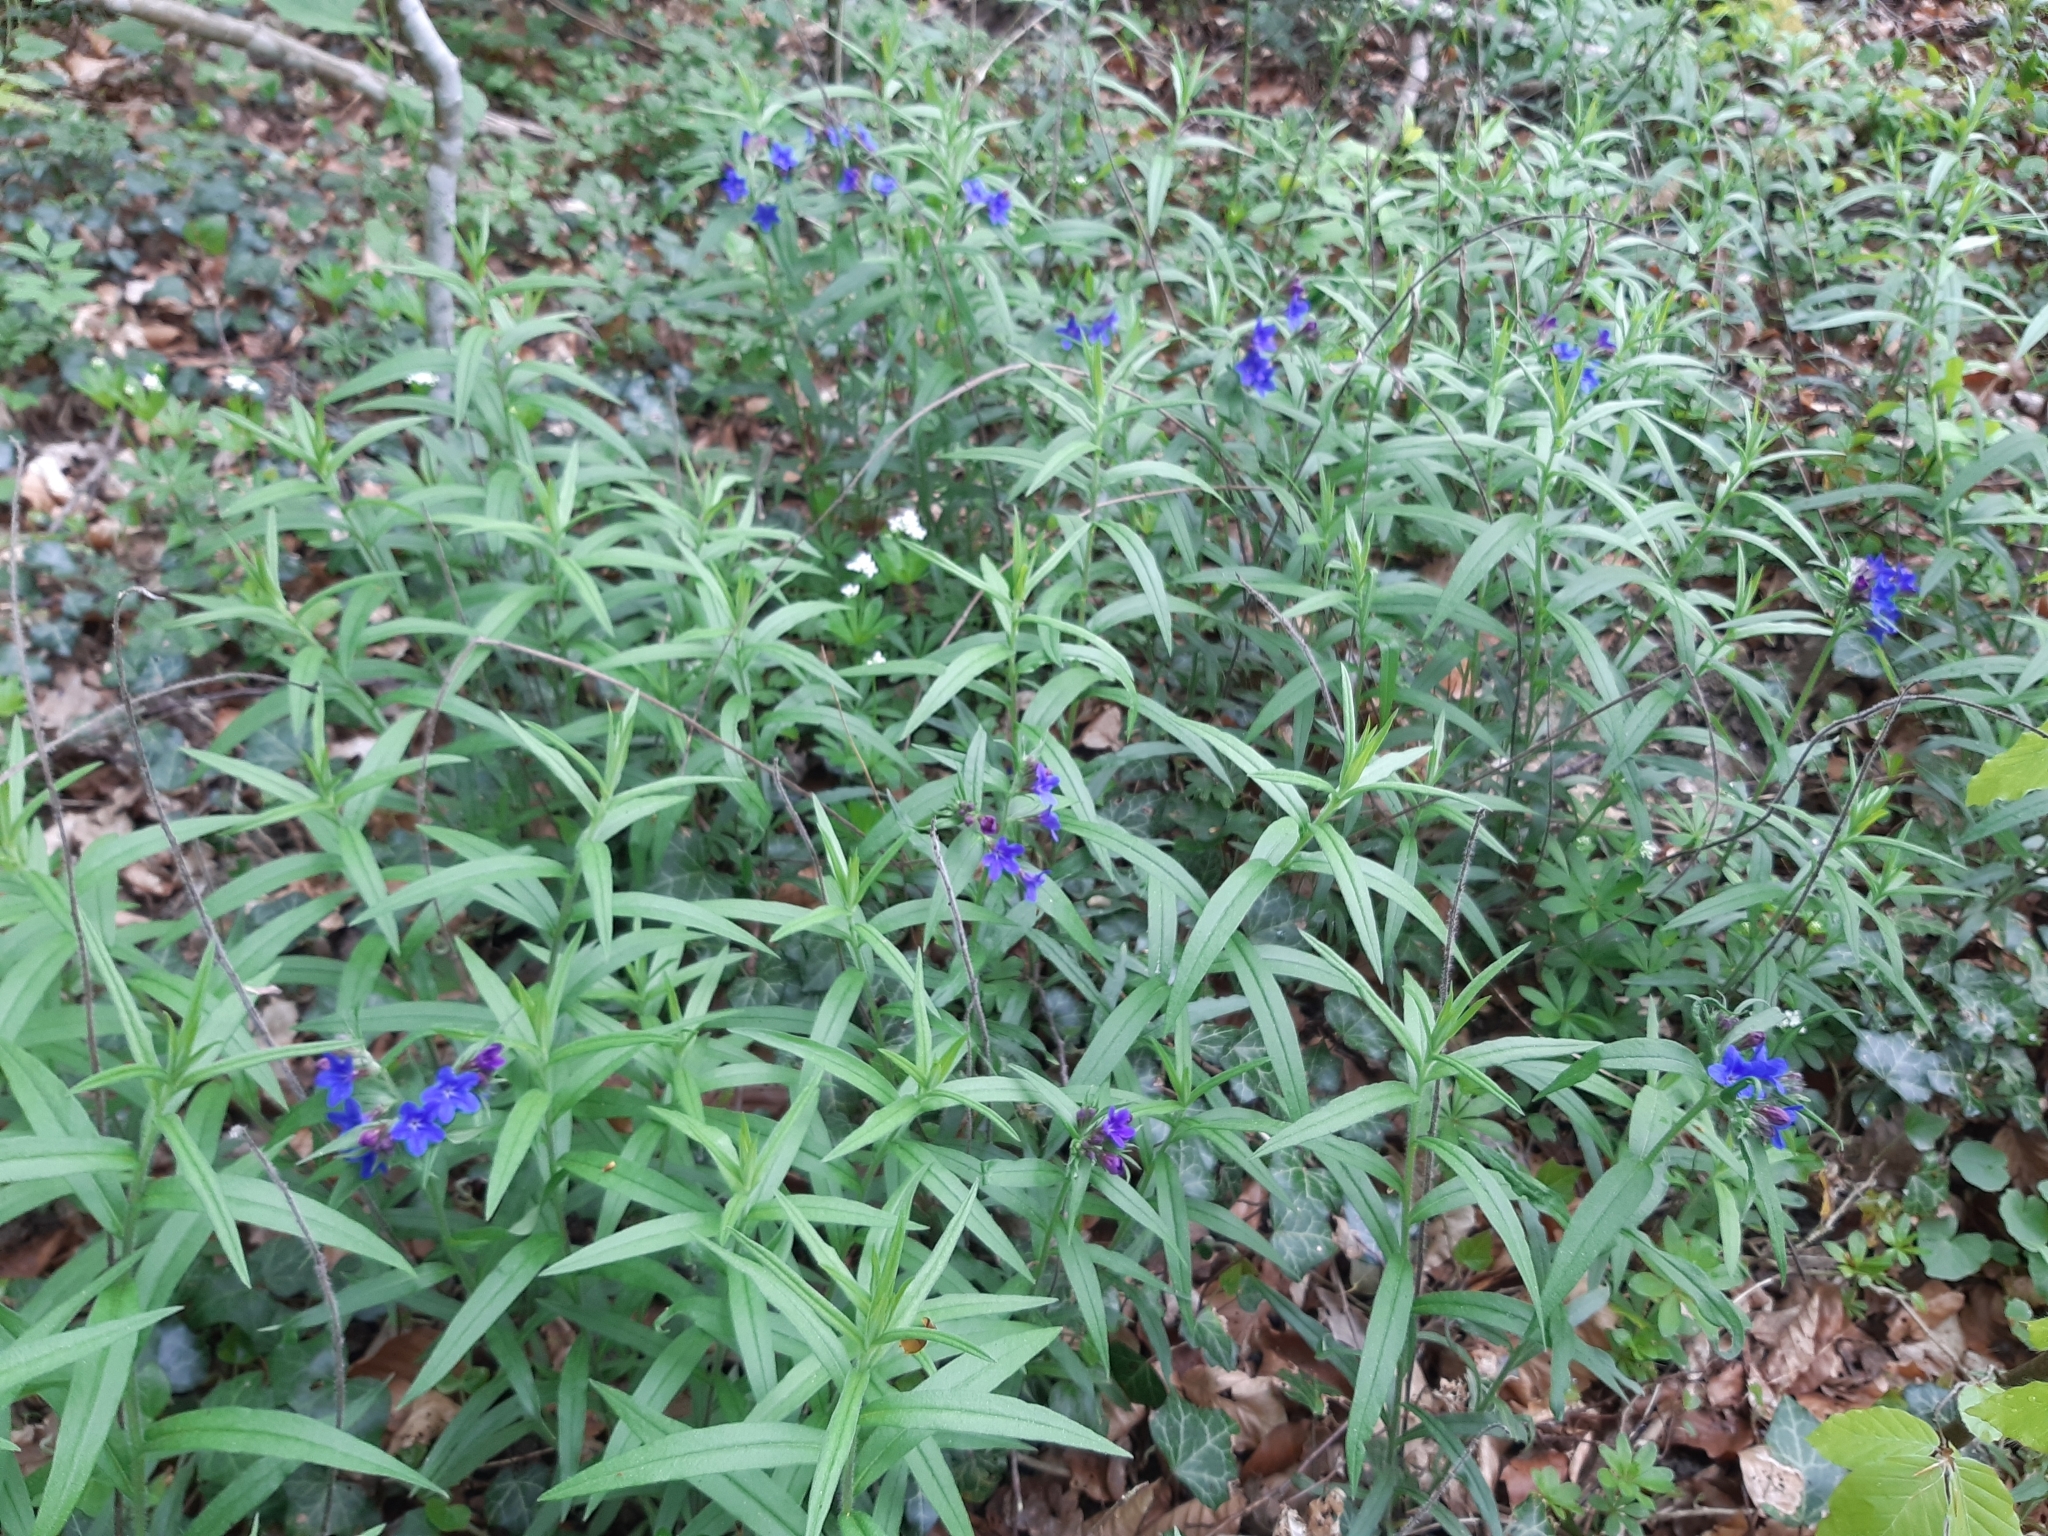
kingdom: Plantae
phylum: Tracheophyta
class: Magnoliopsida
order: Boraginales
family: Boraginaceae
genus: Aegonychon
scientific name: Aegonychon purpurocaeruleum
